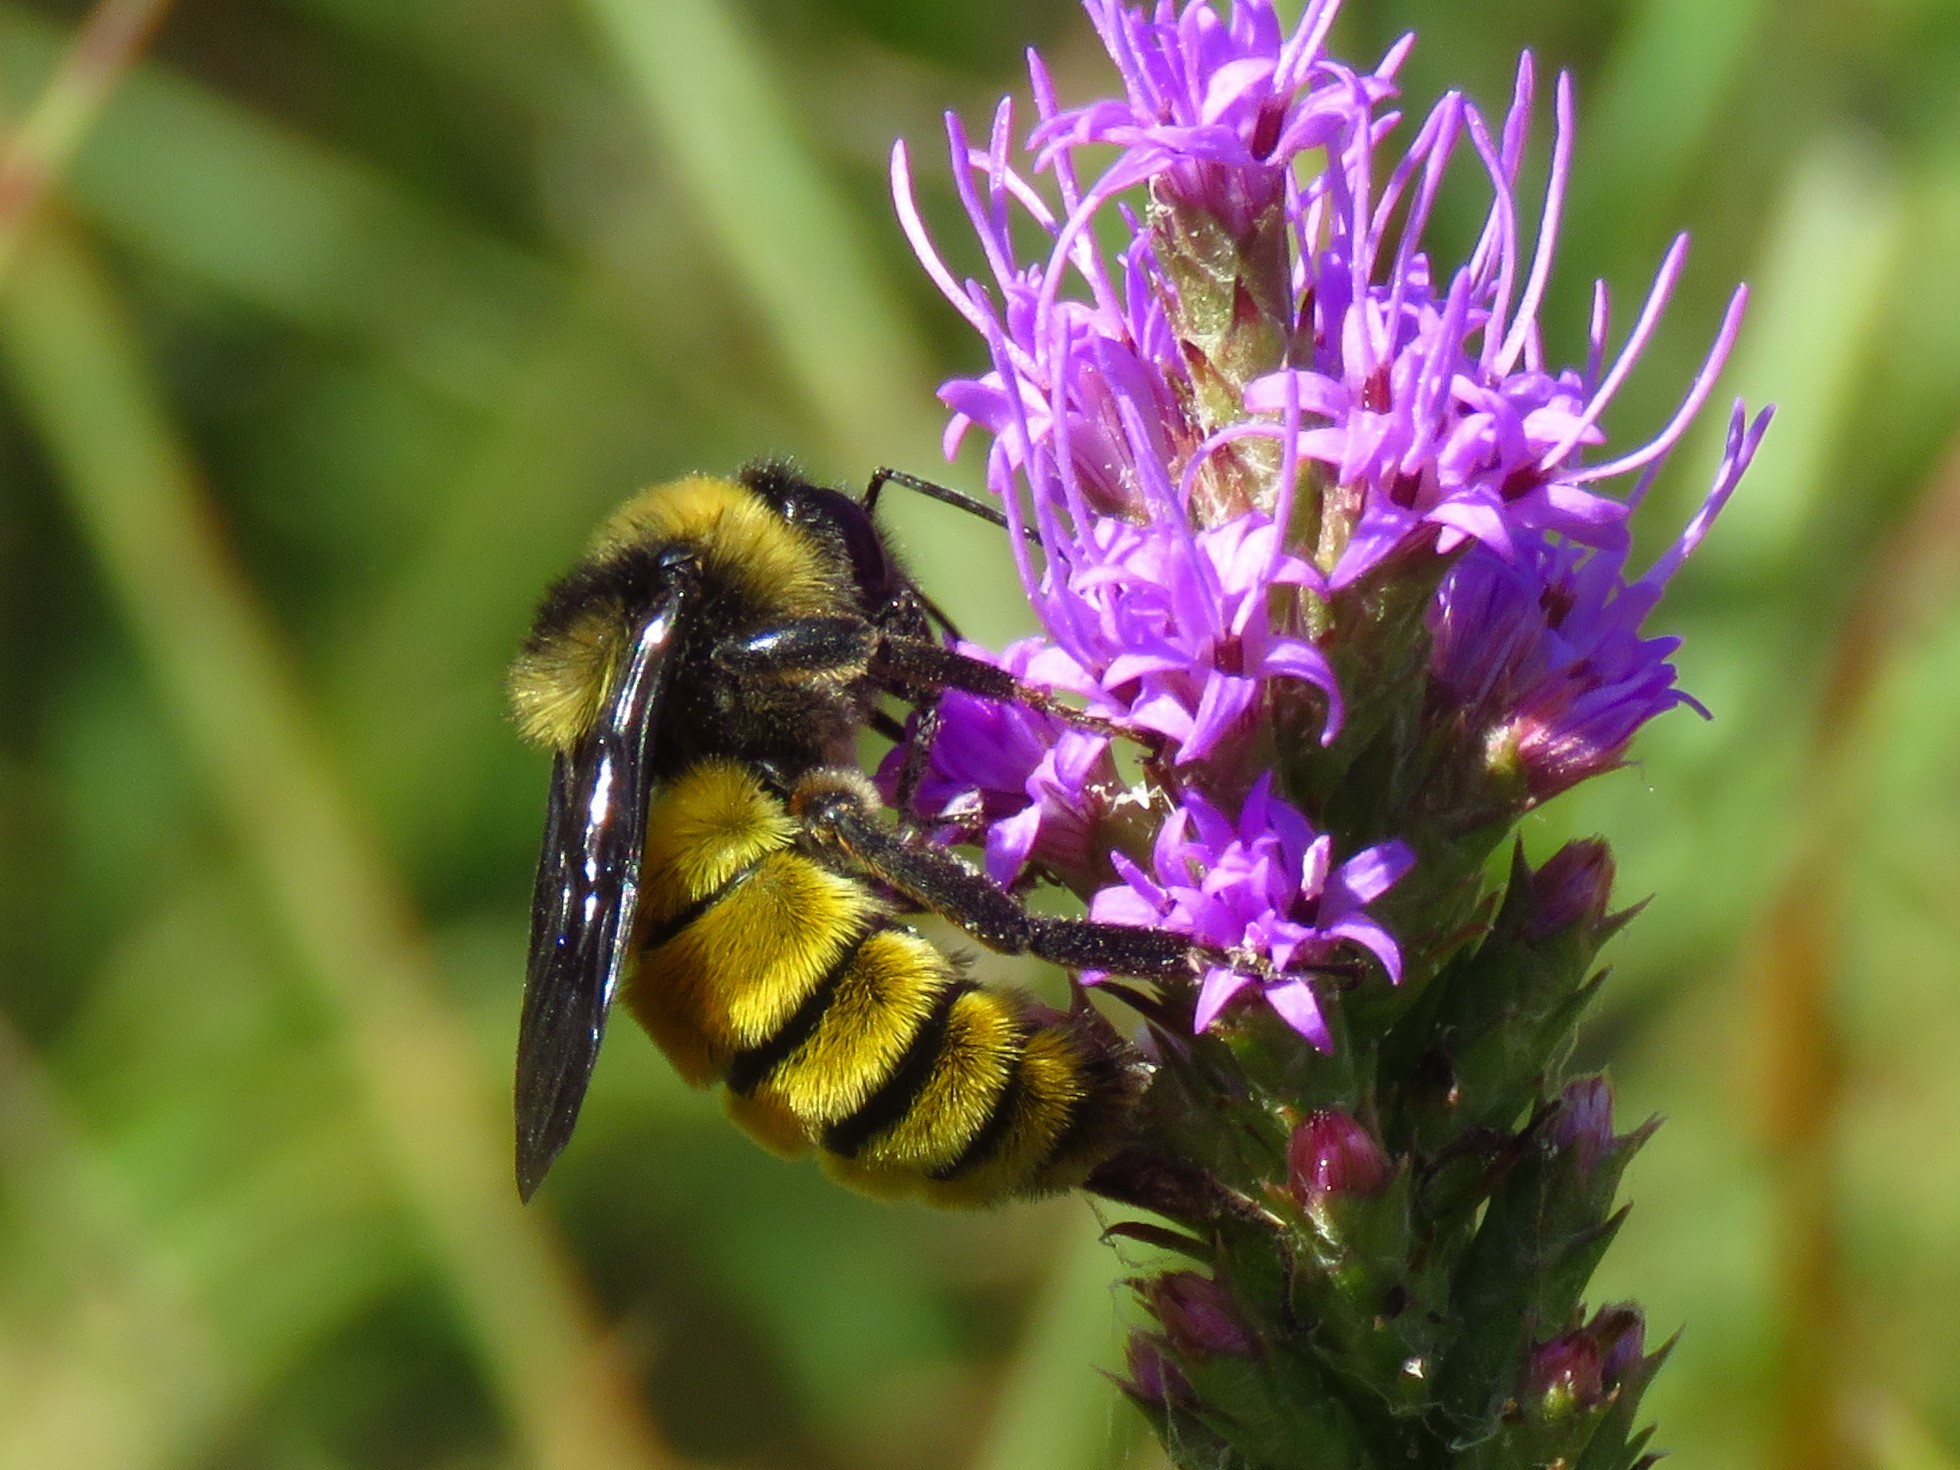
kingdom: Animalia
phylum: Arthropoda
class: Insecta
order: Hymenoptera
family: Apidae
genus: Bombus
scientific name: Bombus pensylvanicus
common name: Bumble bee
